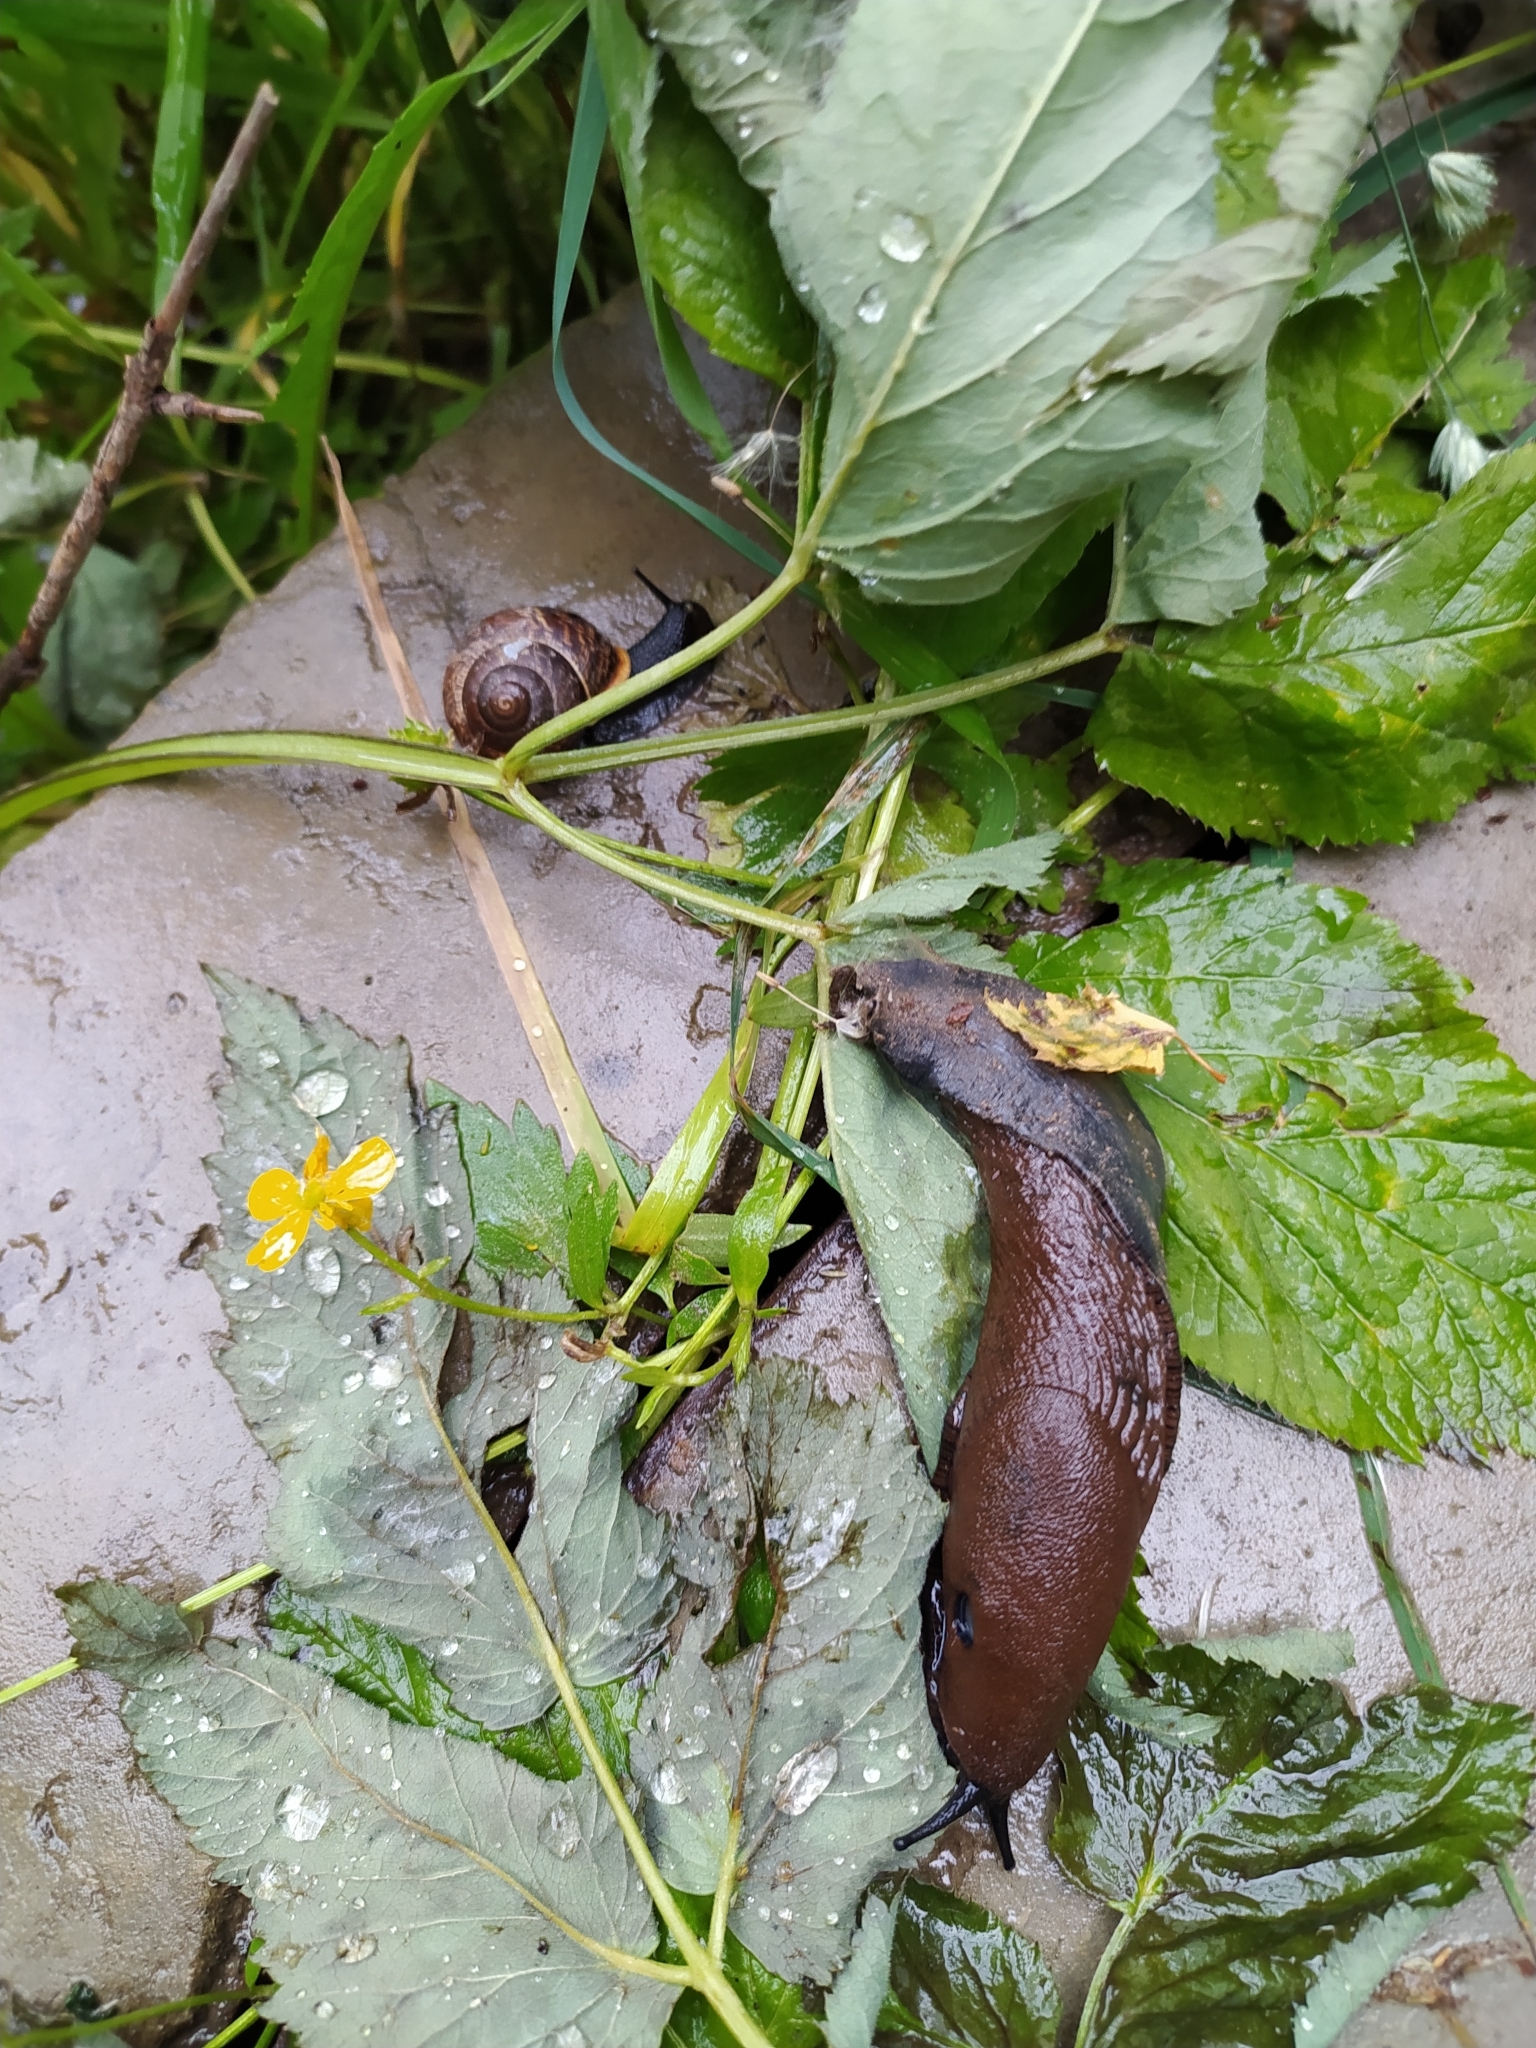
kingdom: Animalia
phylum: Mollusca
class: Gastropoda
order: Stylommatophora
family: Arionidae
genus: Arion
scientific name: Arion
